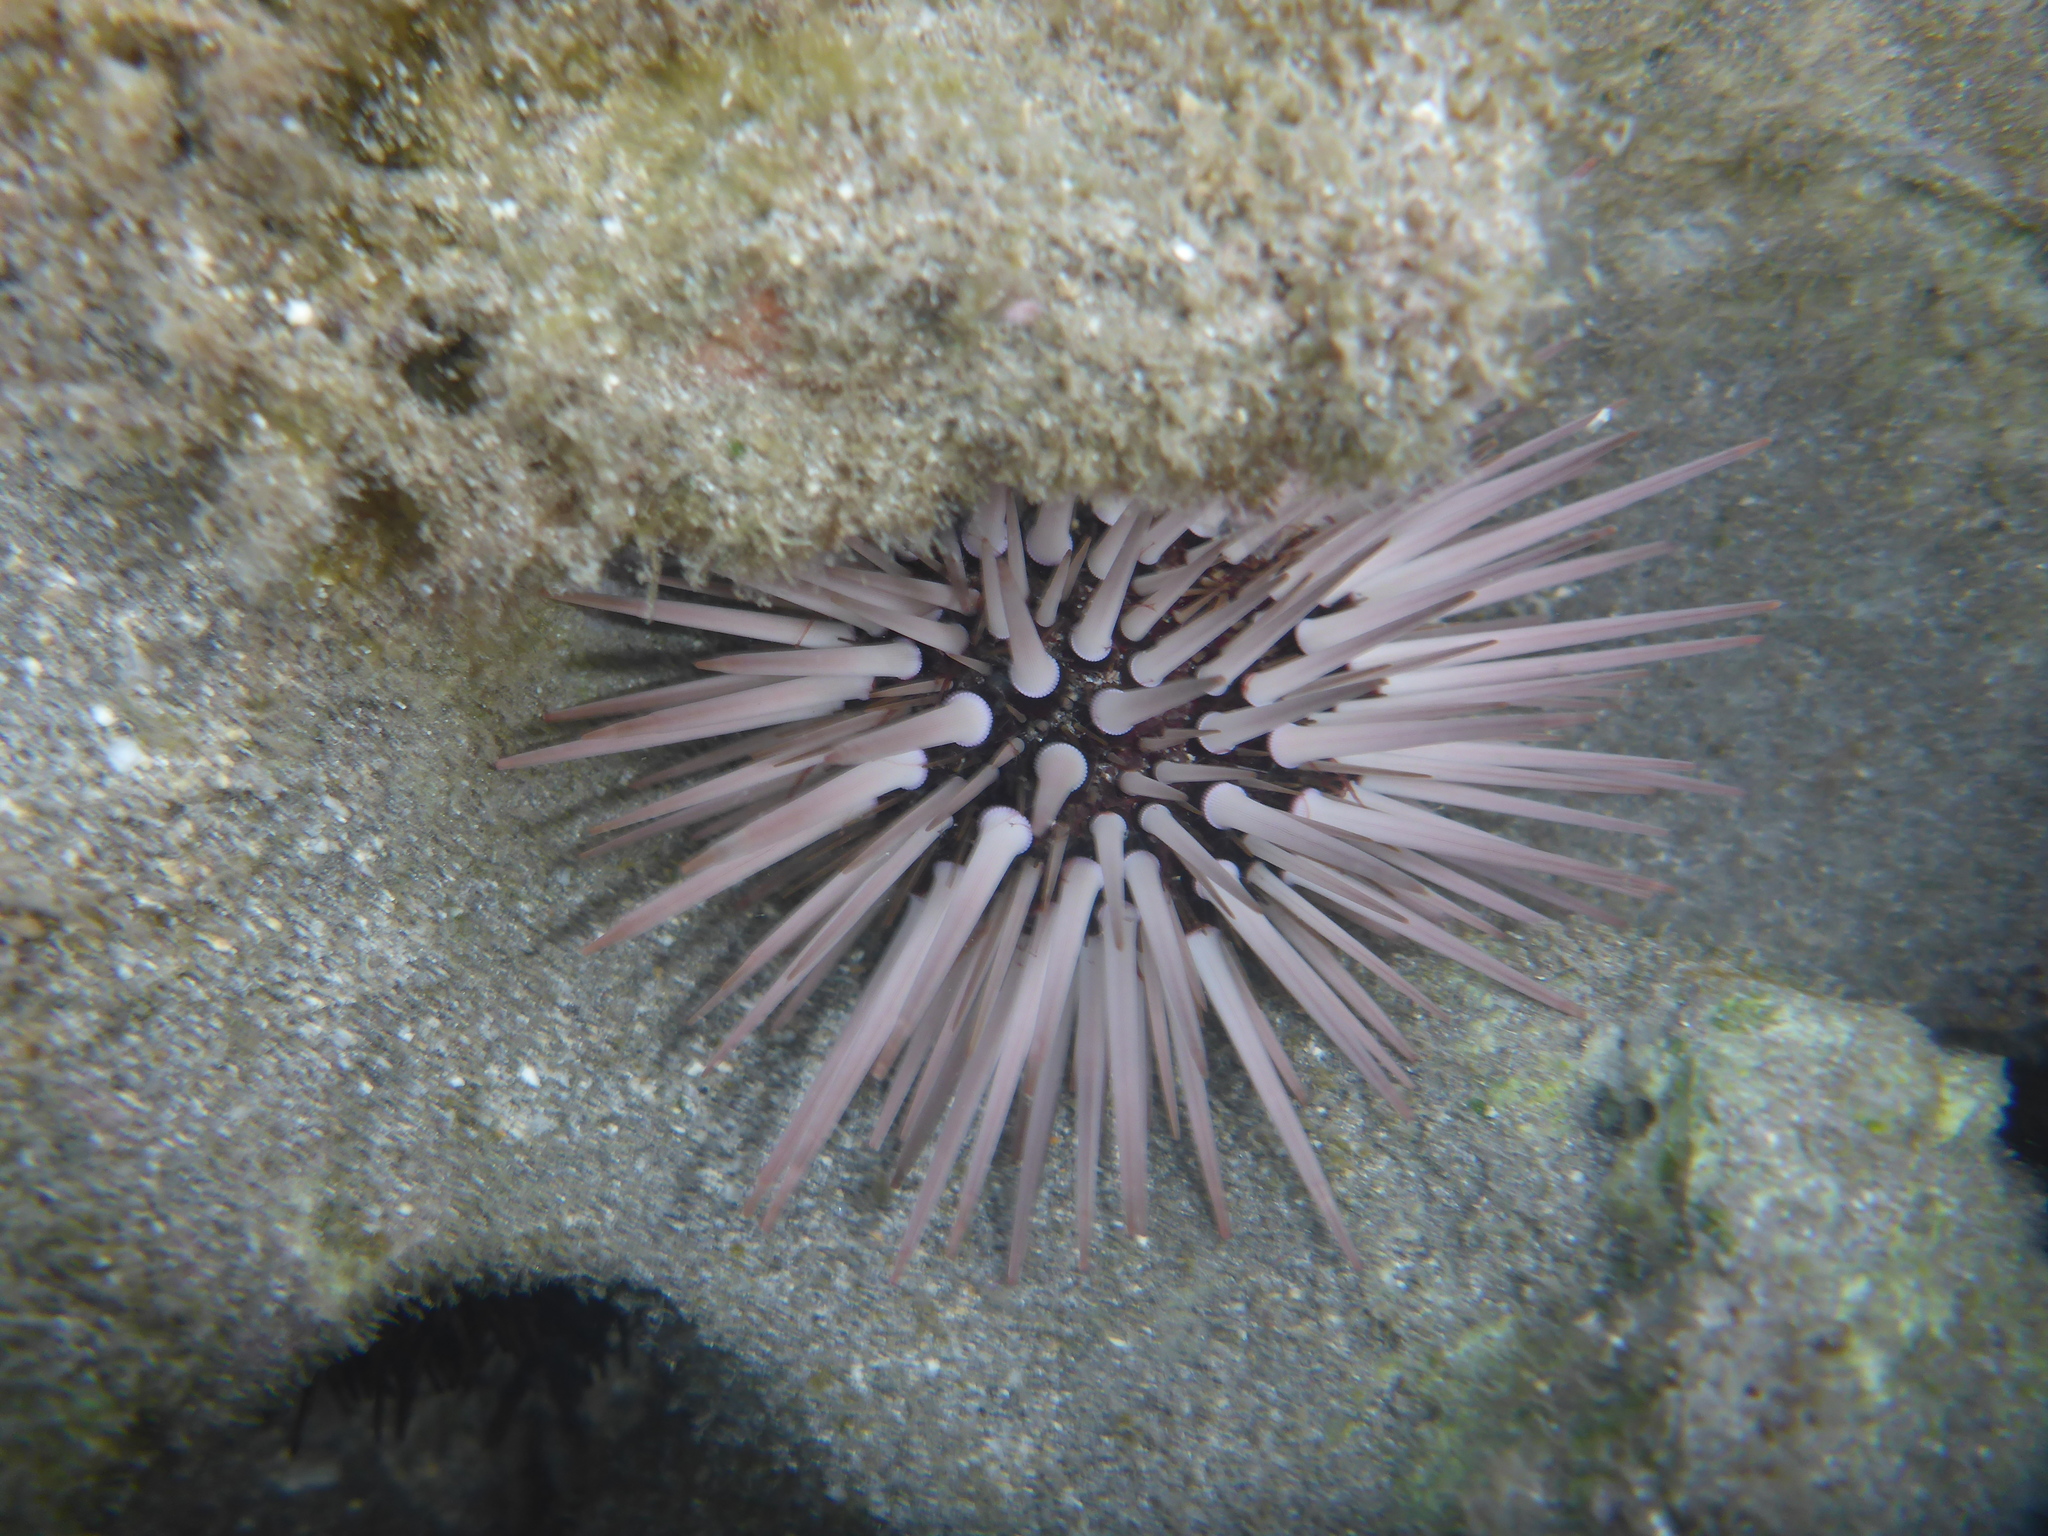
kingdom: Animalia
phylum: Echinodermata
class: Echinoidea
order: Camarodonta
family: Echinometridae
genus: Echinometra
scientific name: Echinometra mathaei
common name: Rock-boring urchin
